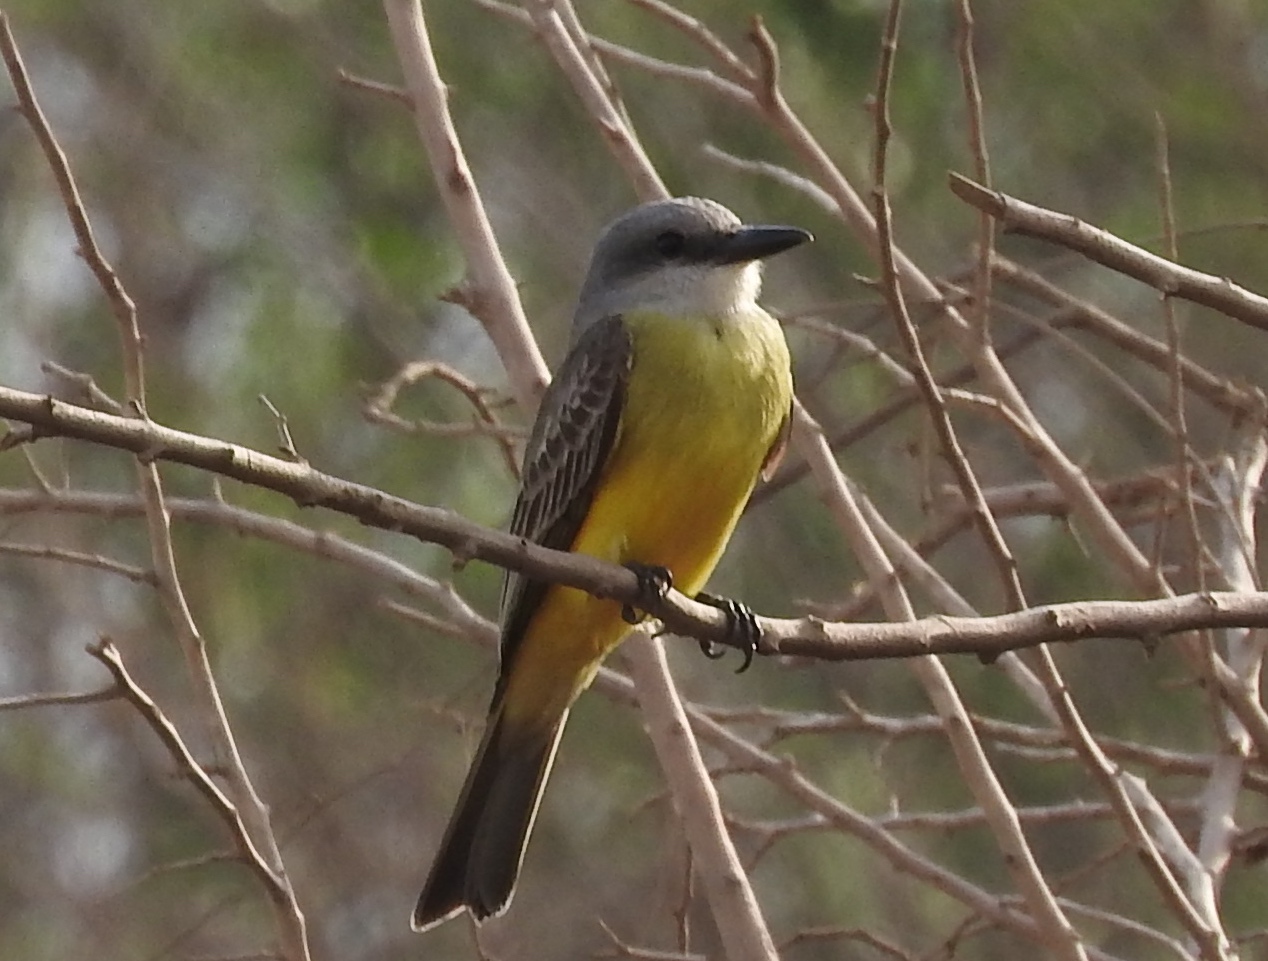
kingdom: Animalia
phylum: Chordata
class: Aves
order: Passeriformes
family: Tyrannidae
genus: Tyrannus
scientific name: Tyrannus melancholicus
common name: Tropical kingbird
